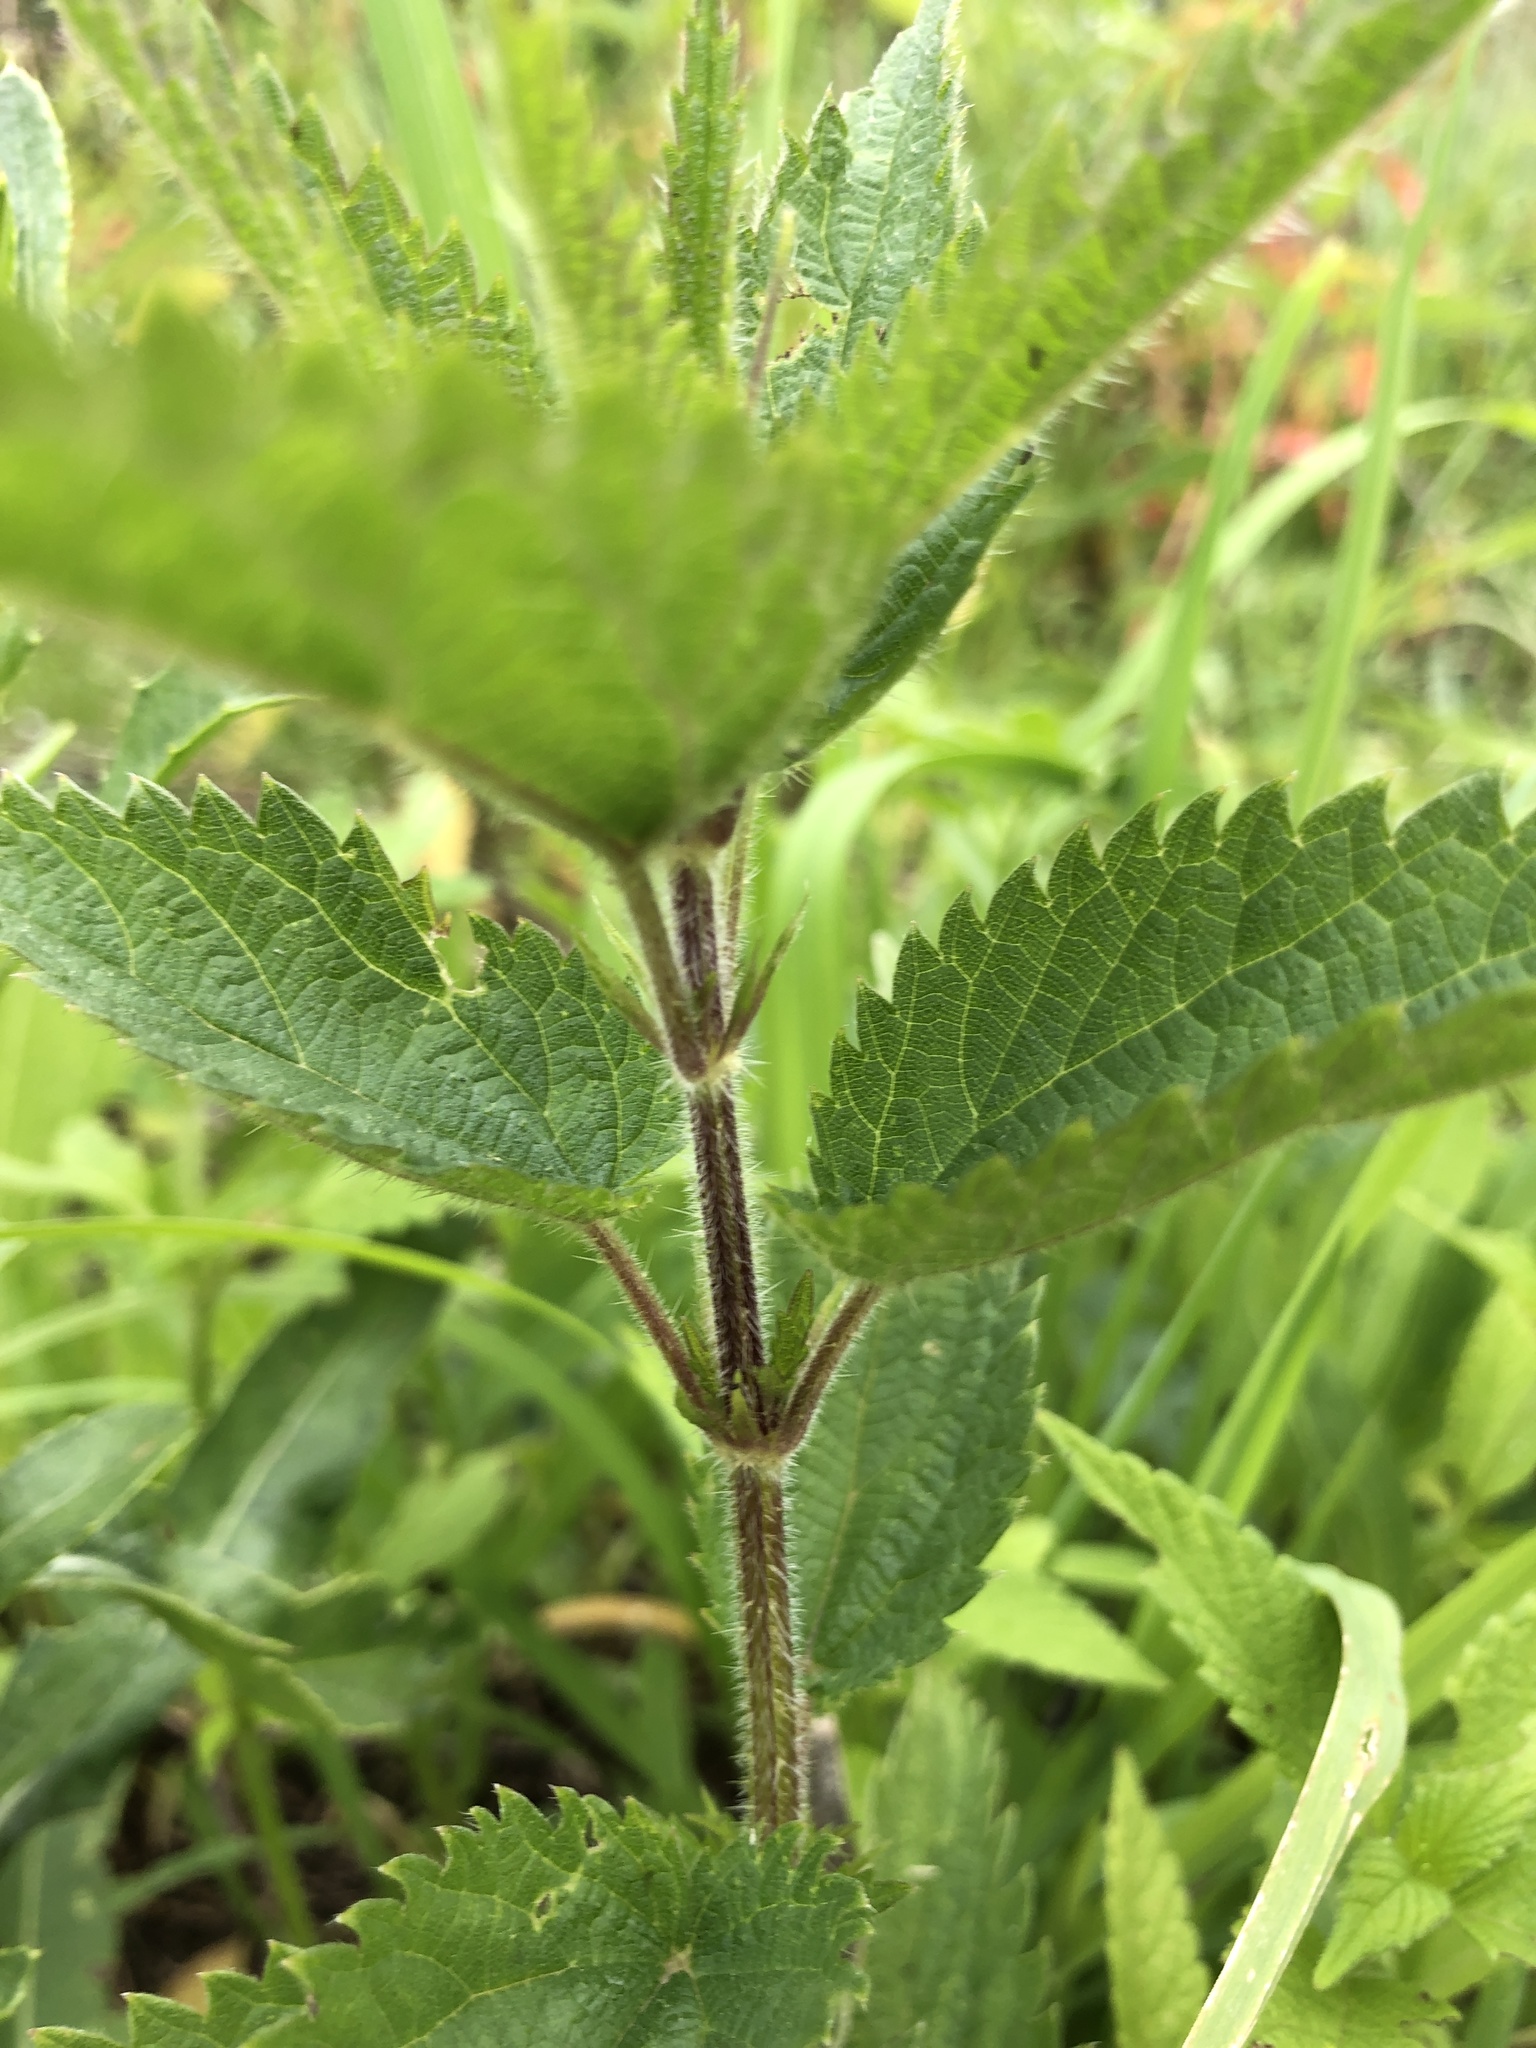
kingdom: Plantae
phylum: Tracheophyta
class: Magnoliopsida
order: Rosales
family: Urticaceae
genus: Urtica
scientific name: Urtica dioica
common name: Common nettle
